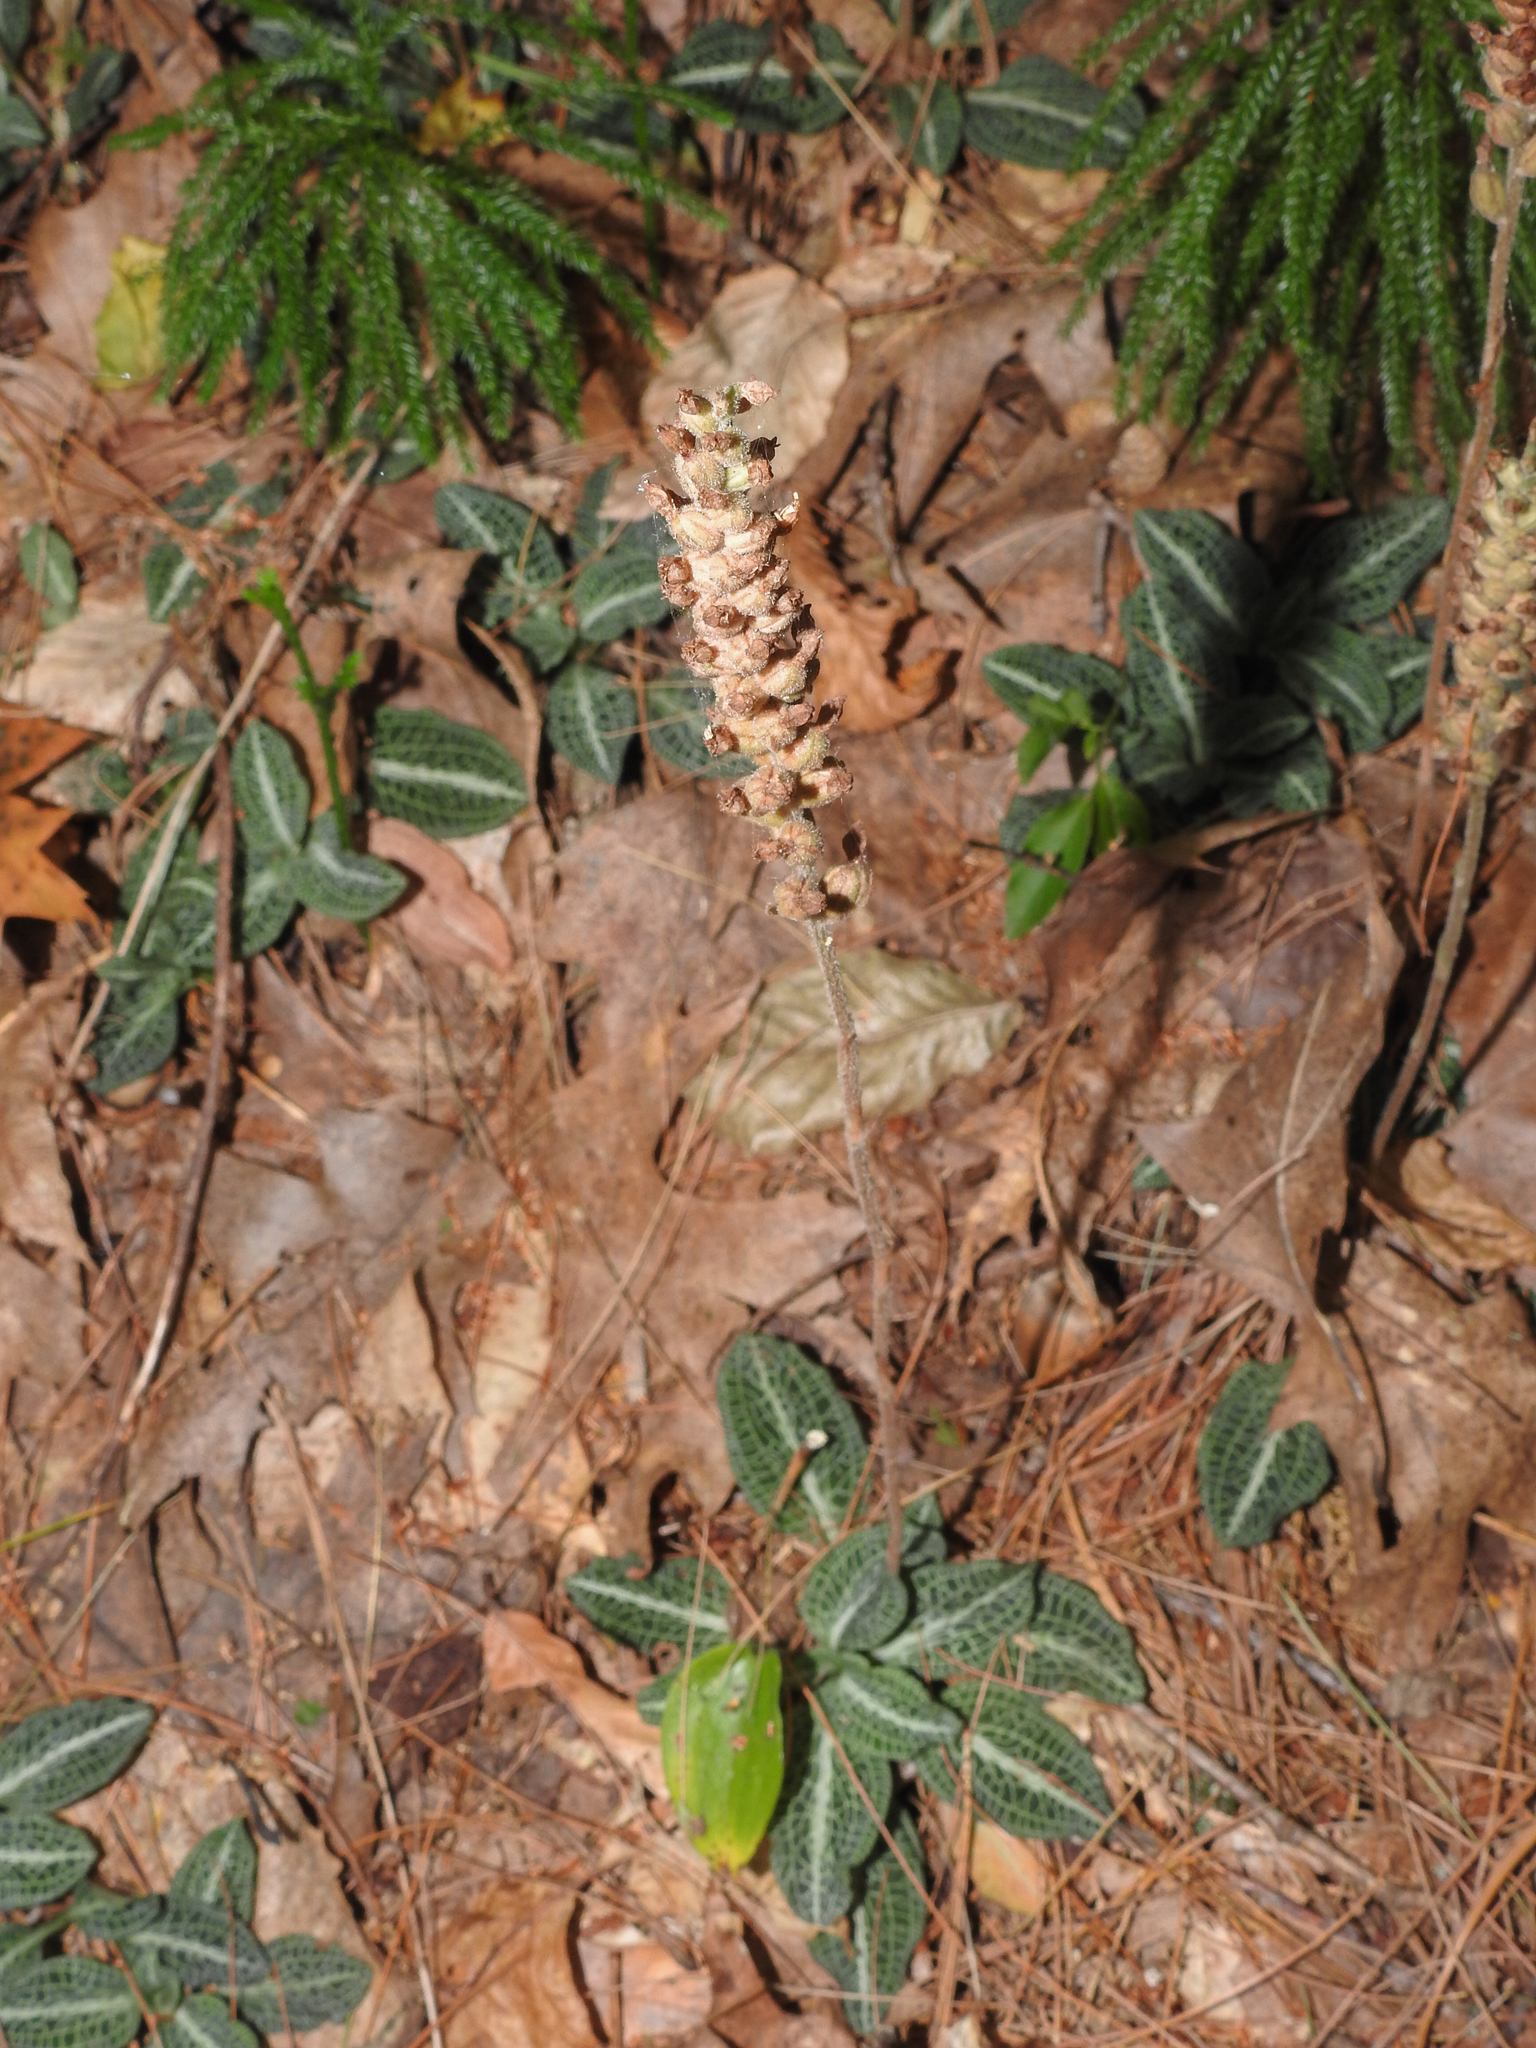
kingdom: Plantae
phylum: Tracheophyta
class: Liliopsida
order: Asparagales
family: Orchidaceae
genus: Goodyera
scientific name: Goodyera pubescens
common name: Downy rattlesnake-plantain
